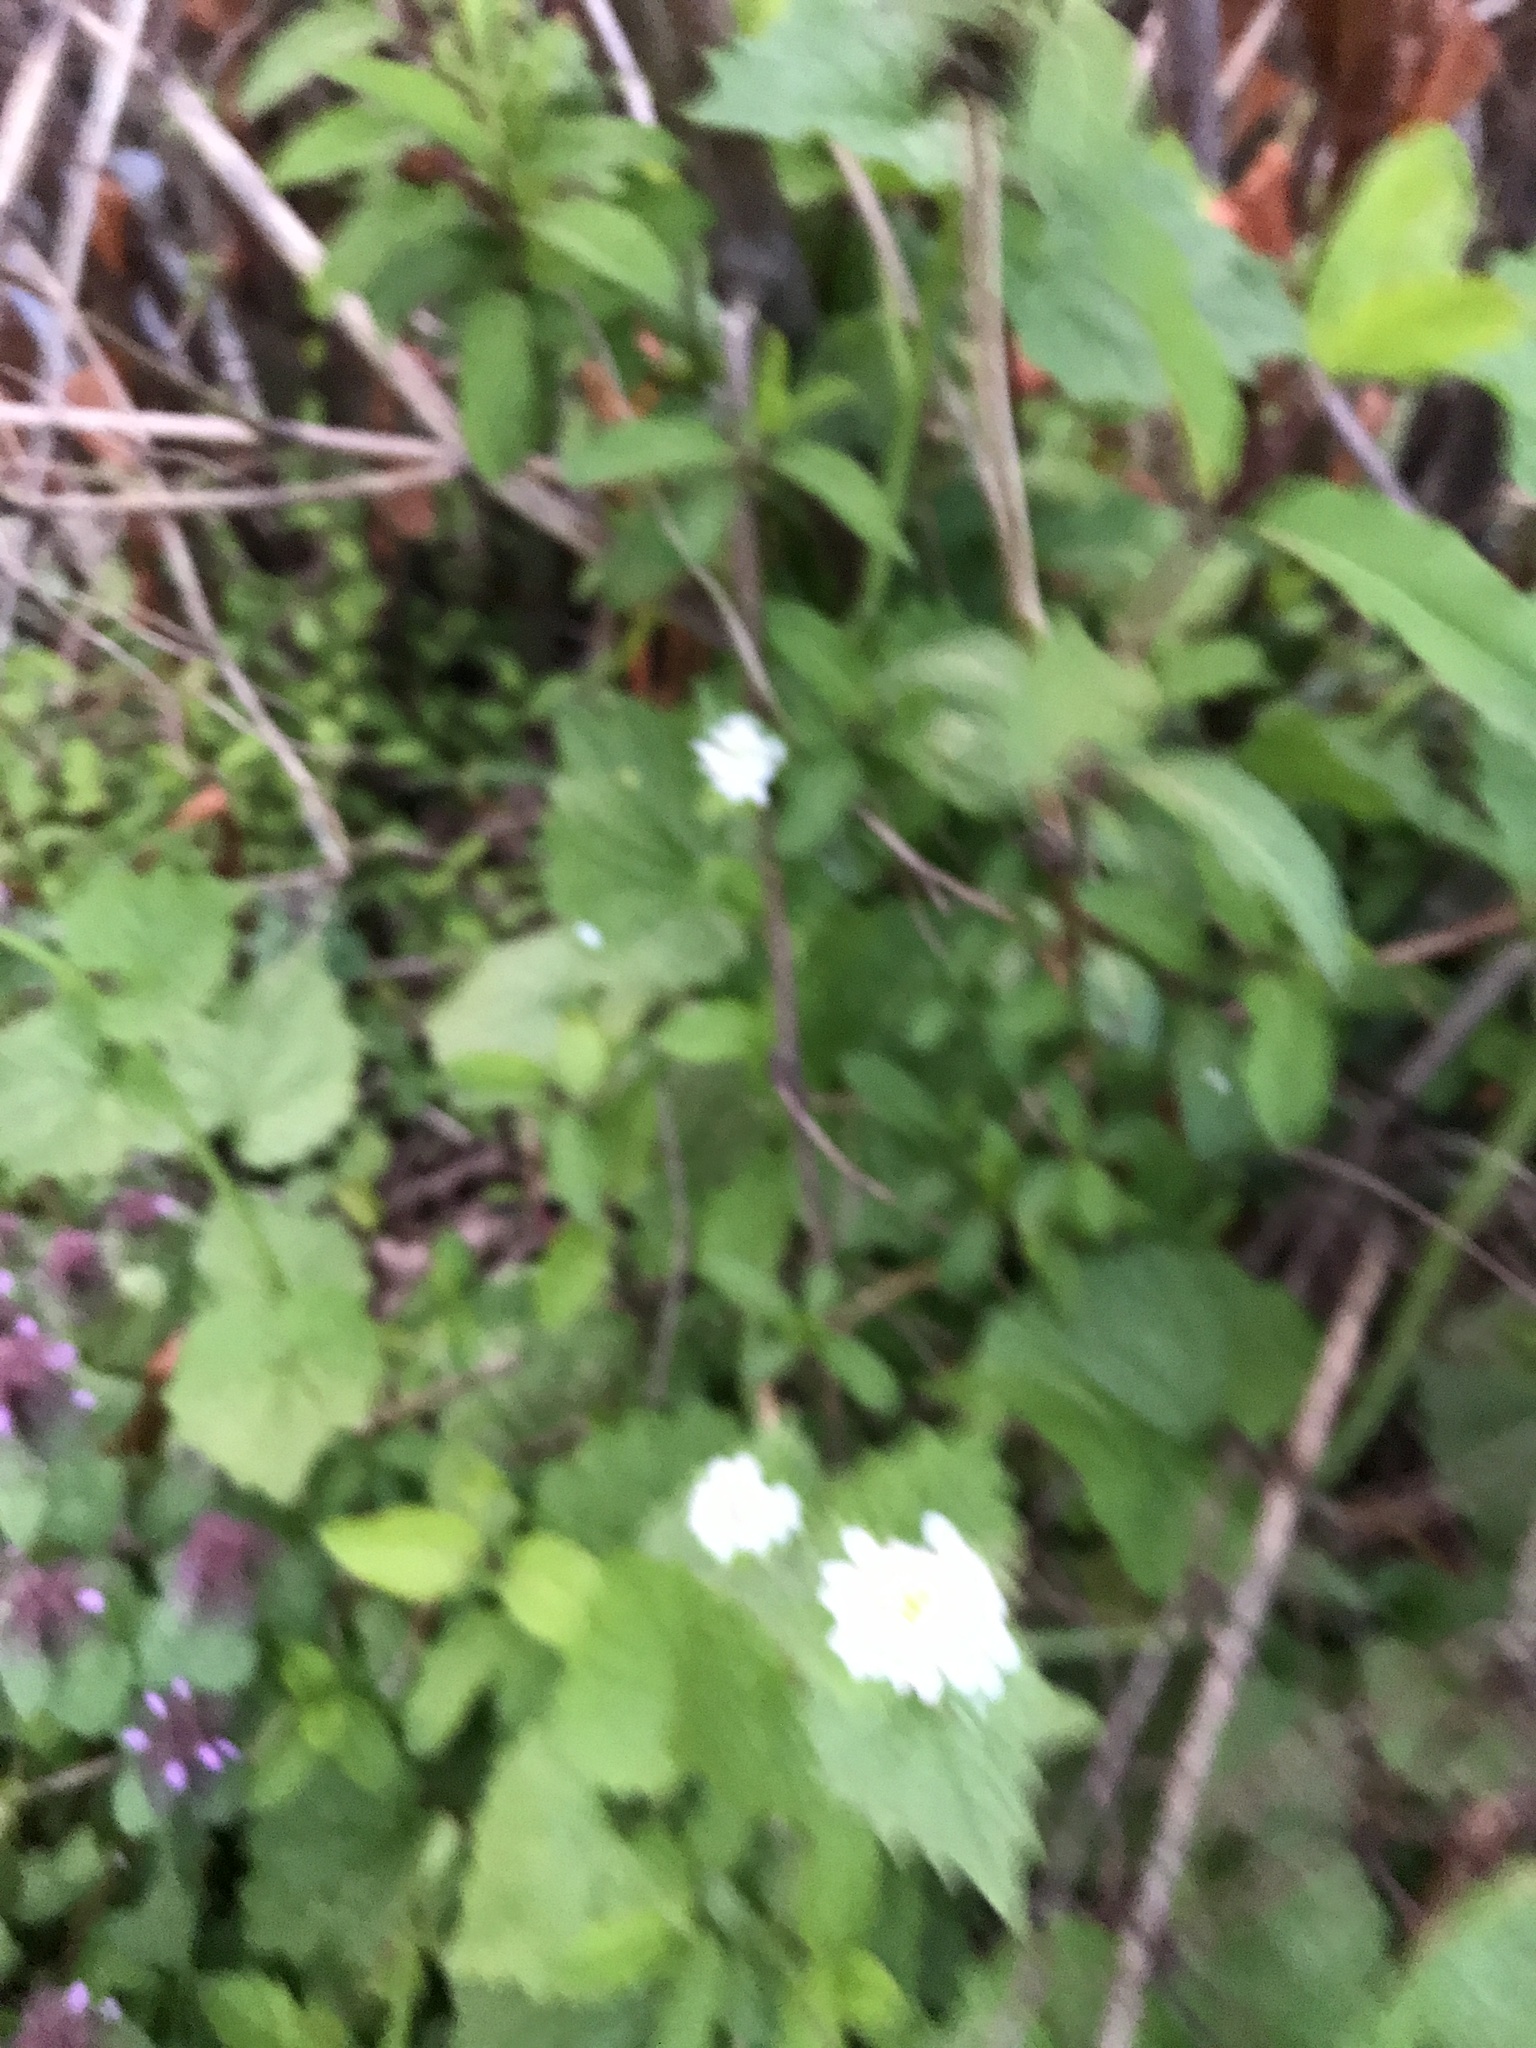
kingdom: Plantae
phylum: Tracheophyta
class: Magnoliopsida
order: Brassicales
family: Brassicaceae
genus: Alliaria
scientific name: Alliaria petiolata
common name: Garlic mustard
